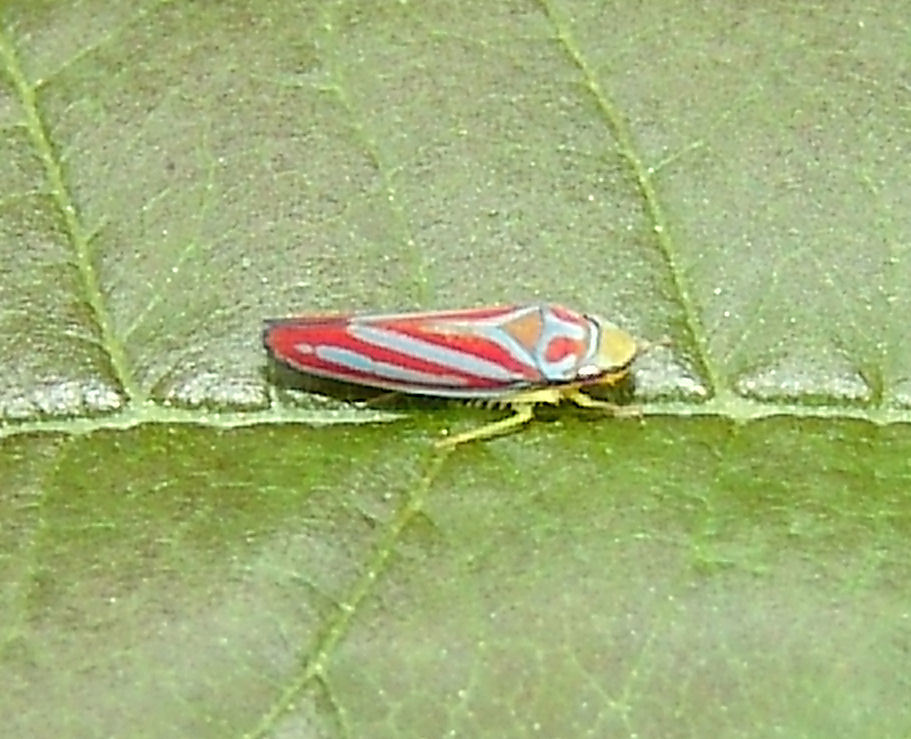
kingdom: Animalia
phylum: Arthropoda
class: Insecta
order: Hemiptera
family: Cicadellidae
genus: Graphocephala
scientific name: Graphocephala coccinea
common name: Candy-striped leafhopper
